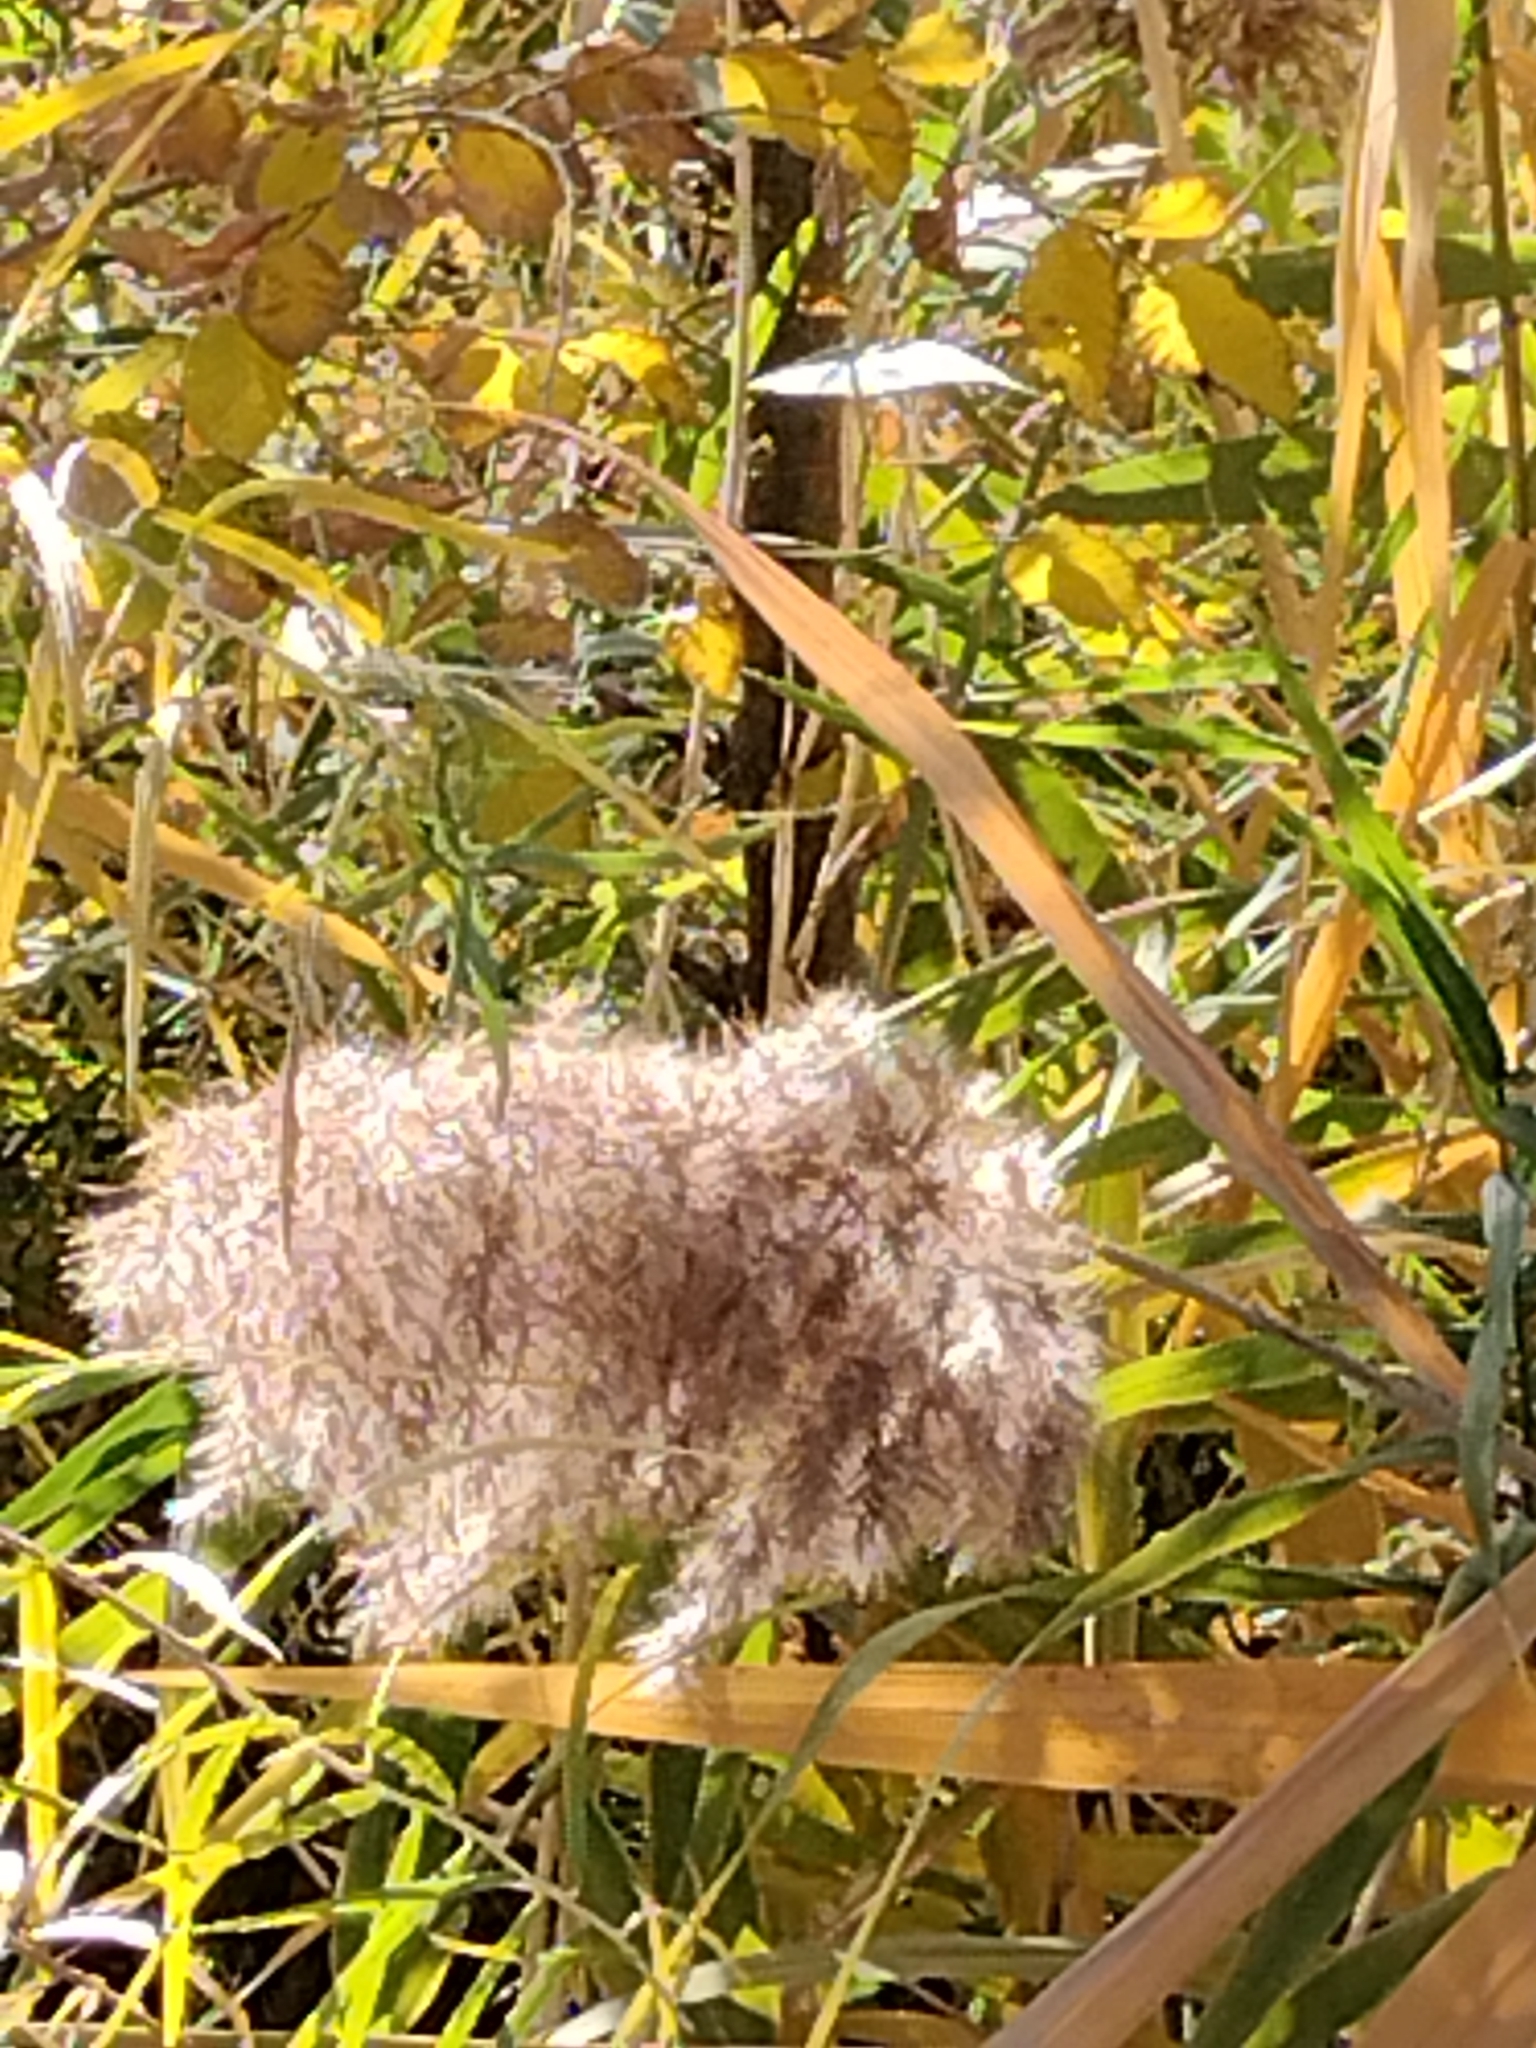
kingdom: Plantae
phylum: Tracheophyta
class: Liliopsida
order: Poales
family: Poaceae
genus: Phragmites
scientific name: Phragmites australis
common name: Common reed
